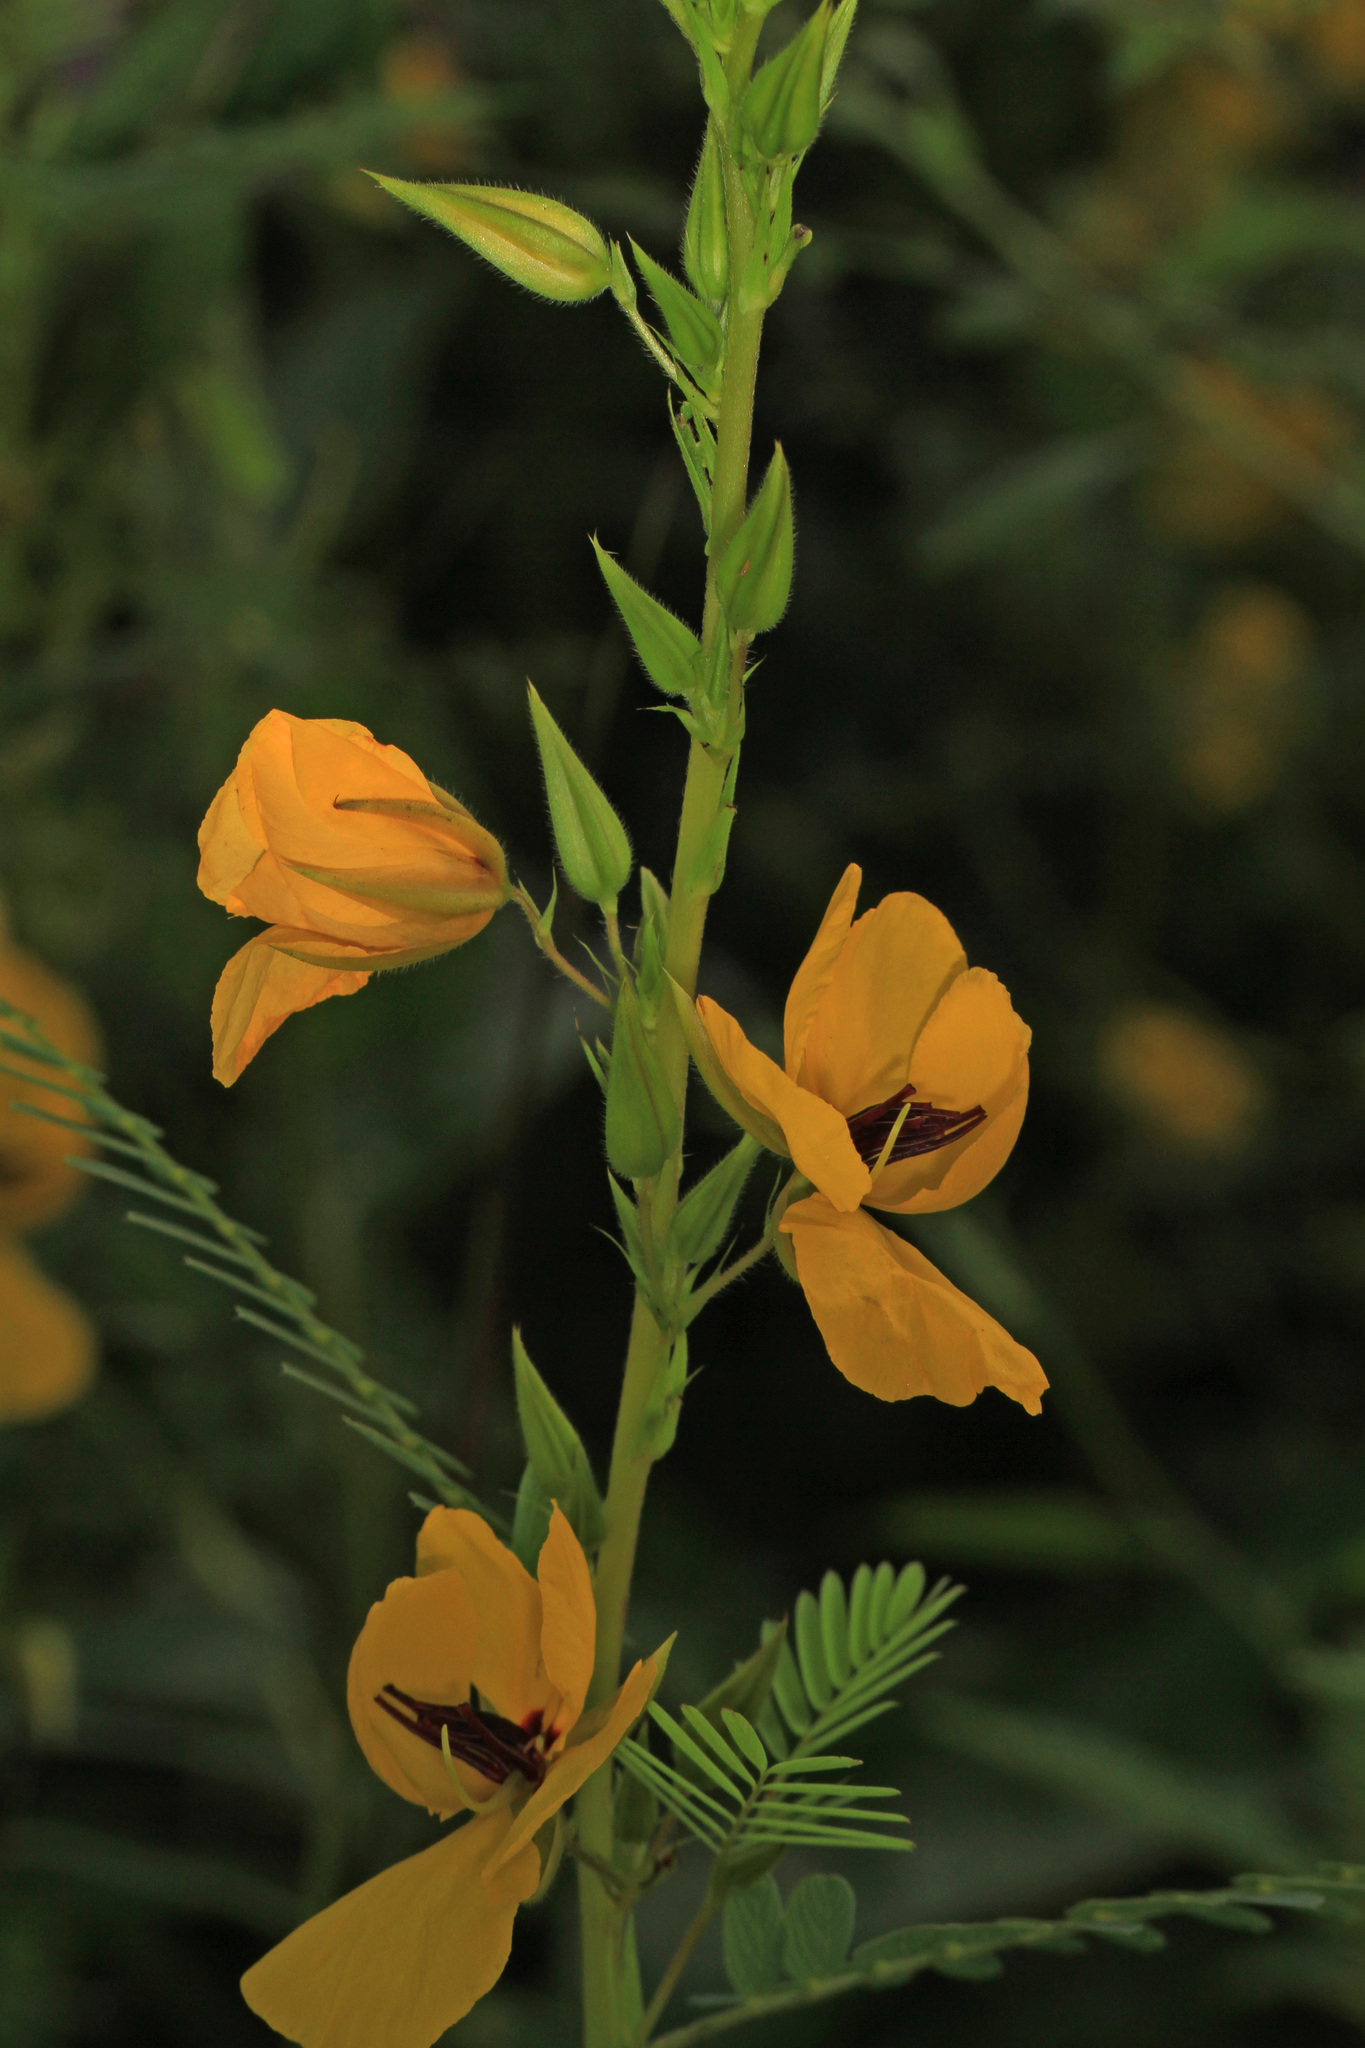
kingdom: Plantae
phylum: Tracheophyta
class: Magnoliopsida
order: Fabales
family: Fabaceae
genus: Chamaecrista
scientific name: Chamaecrista fasciculata
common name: Golden cassia
